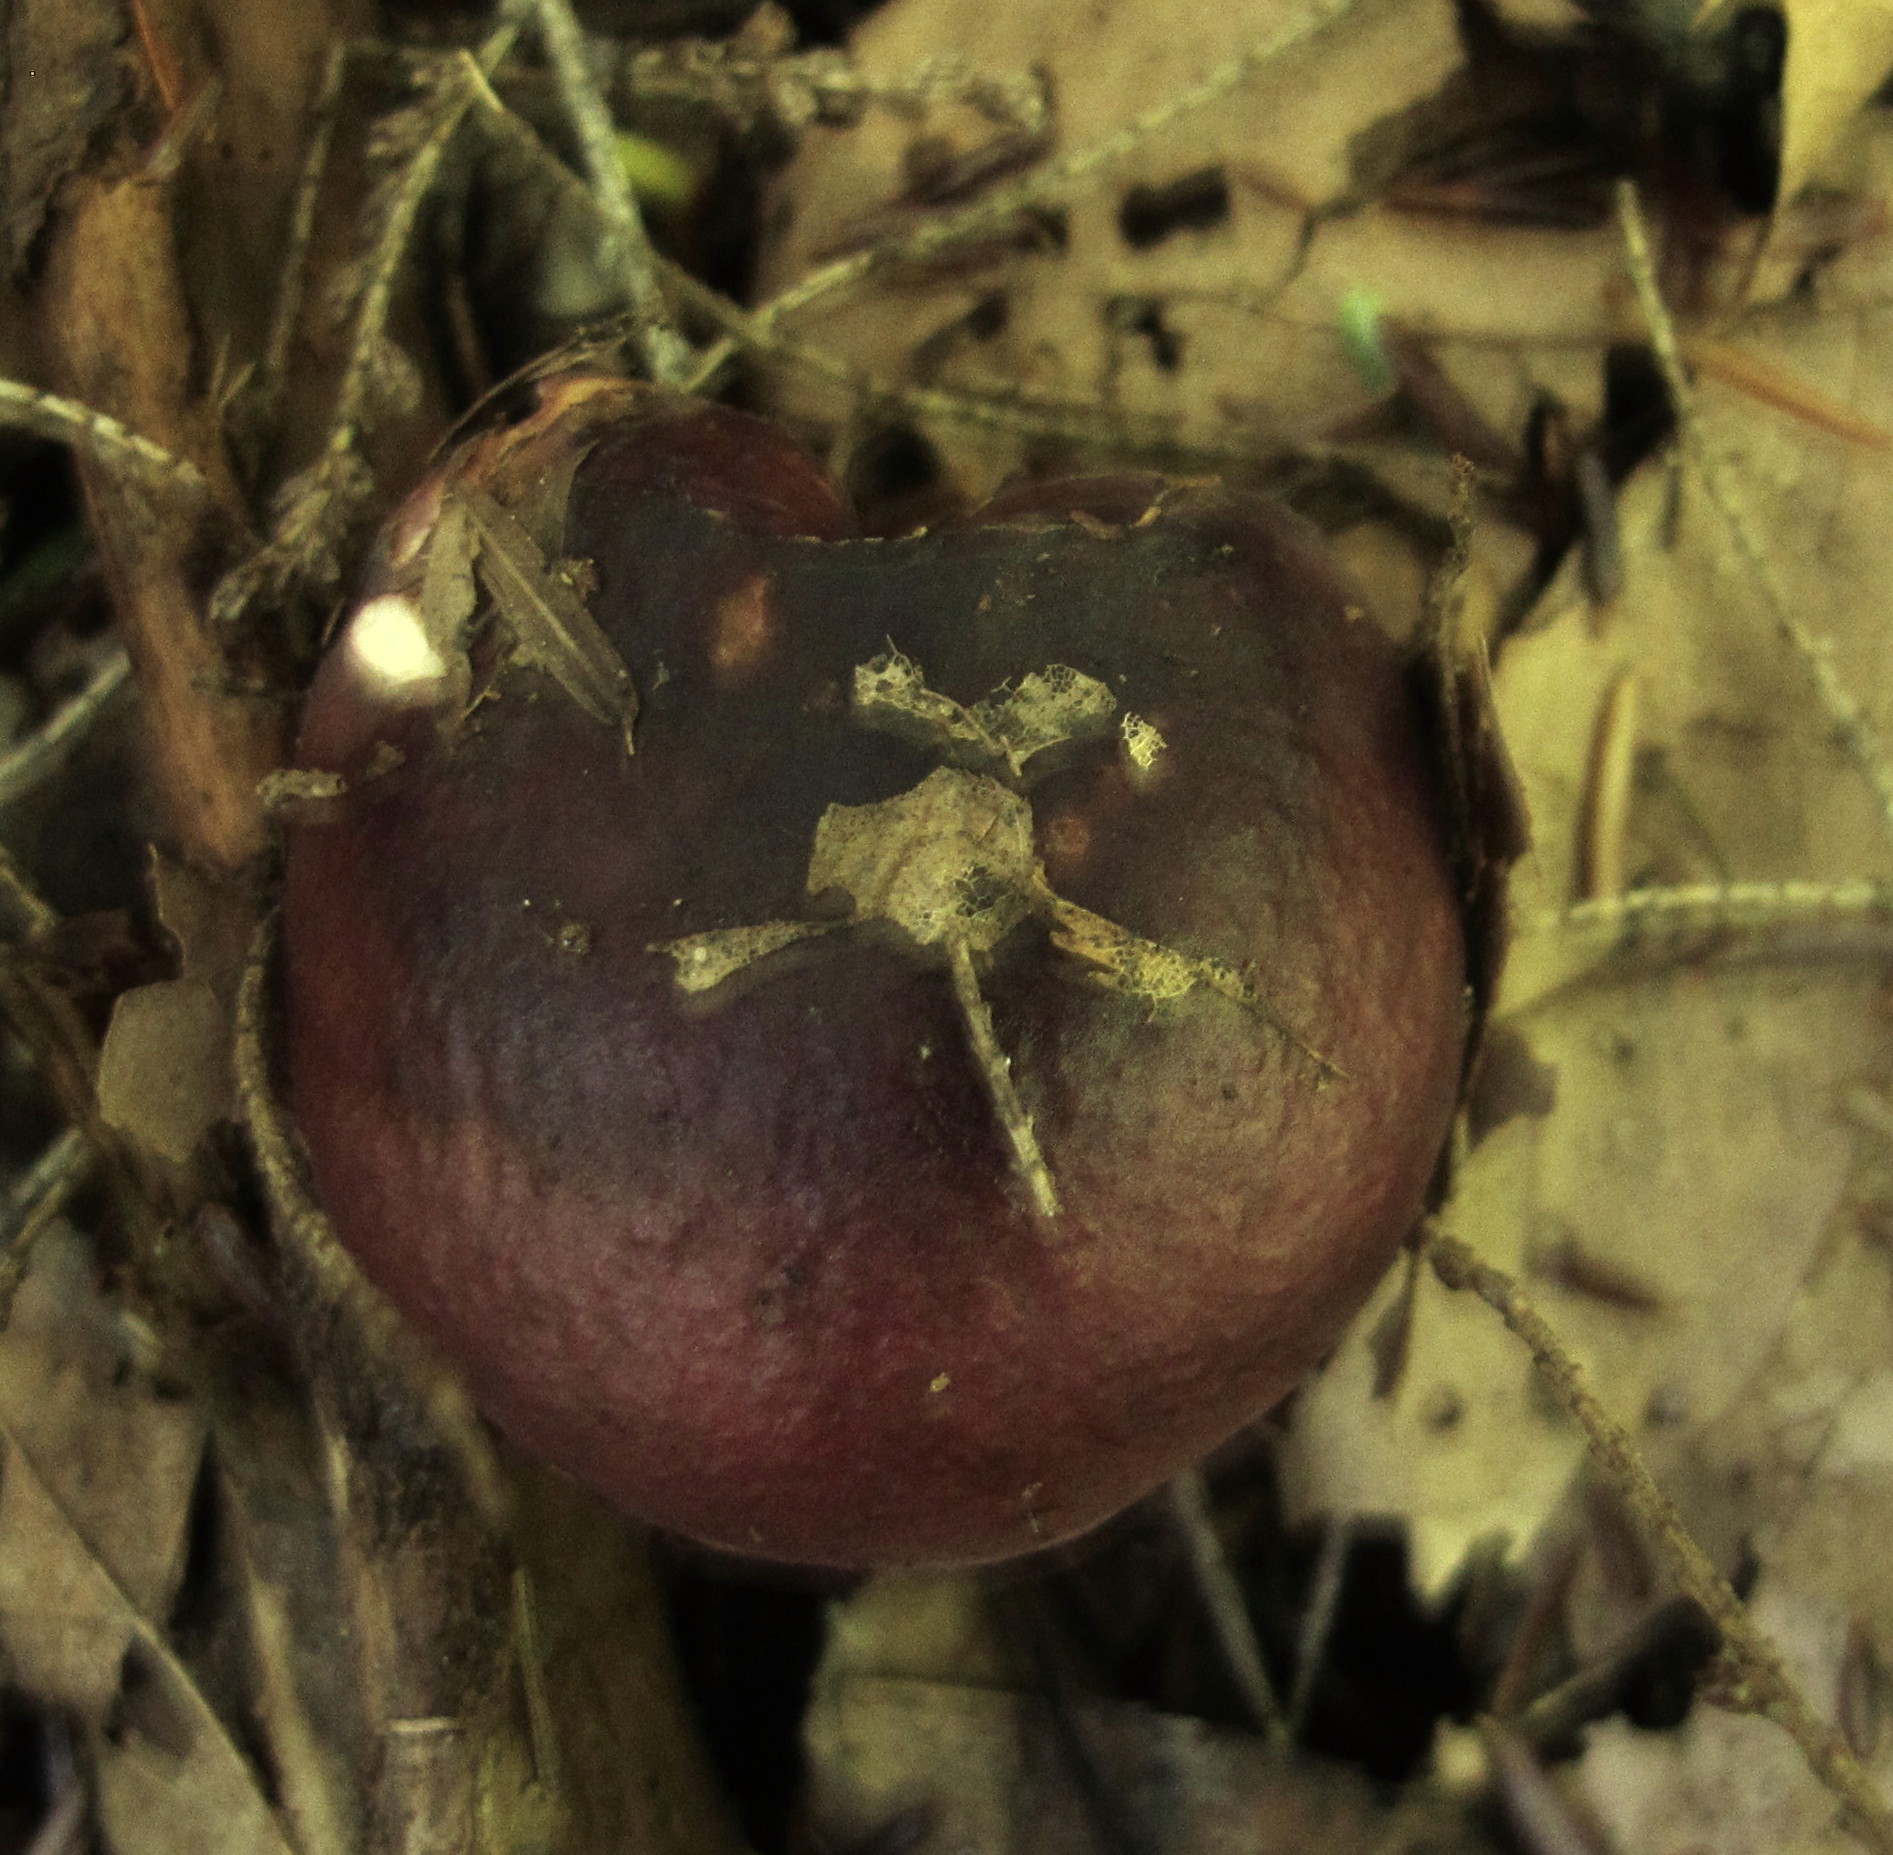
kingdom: Fungi
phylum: Basidiomycota
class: Agaricomycetes
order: Russulales
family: Russulaceae
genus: Russula
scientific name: Russula vinacea
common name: Blackish-red russula
